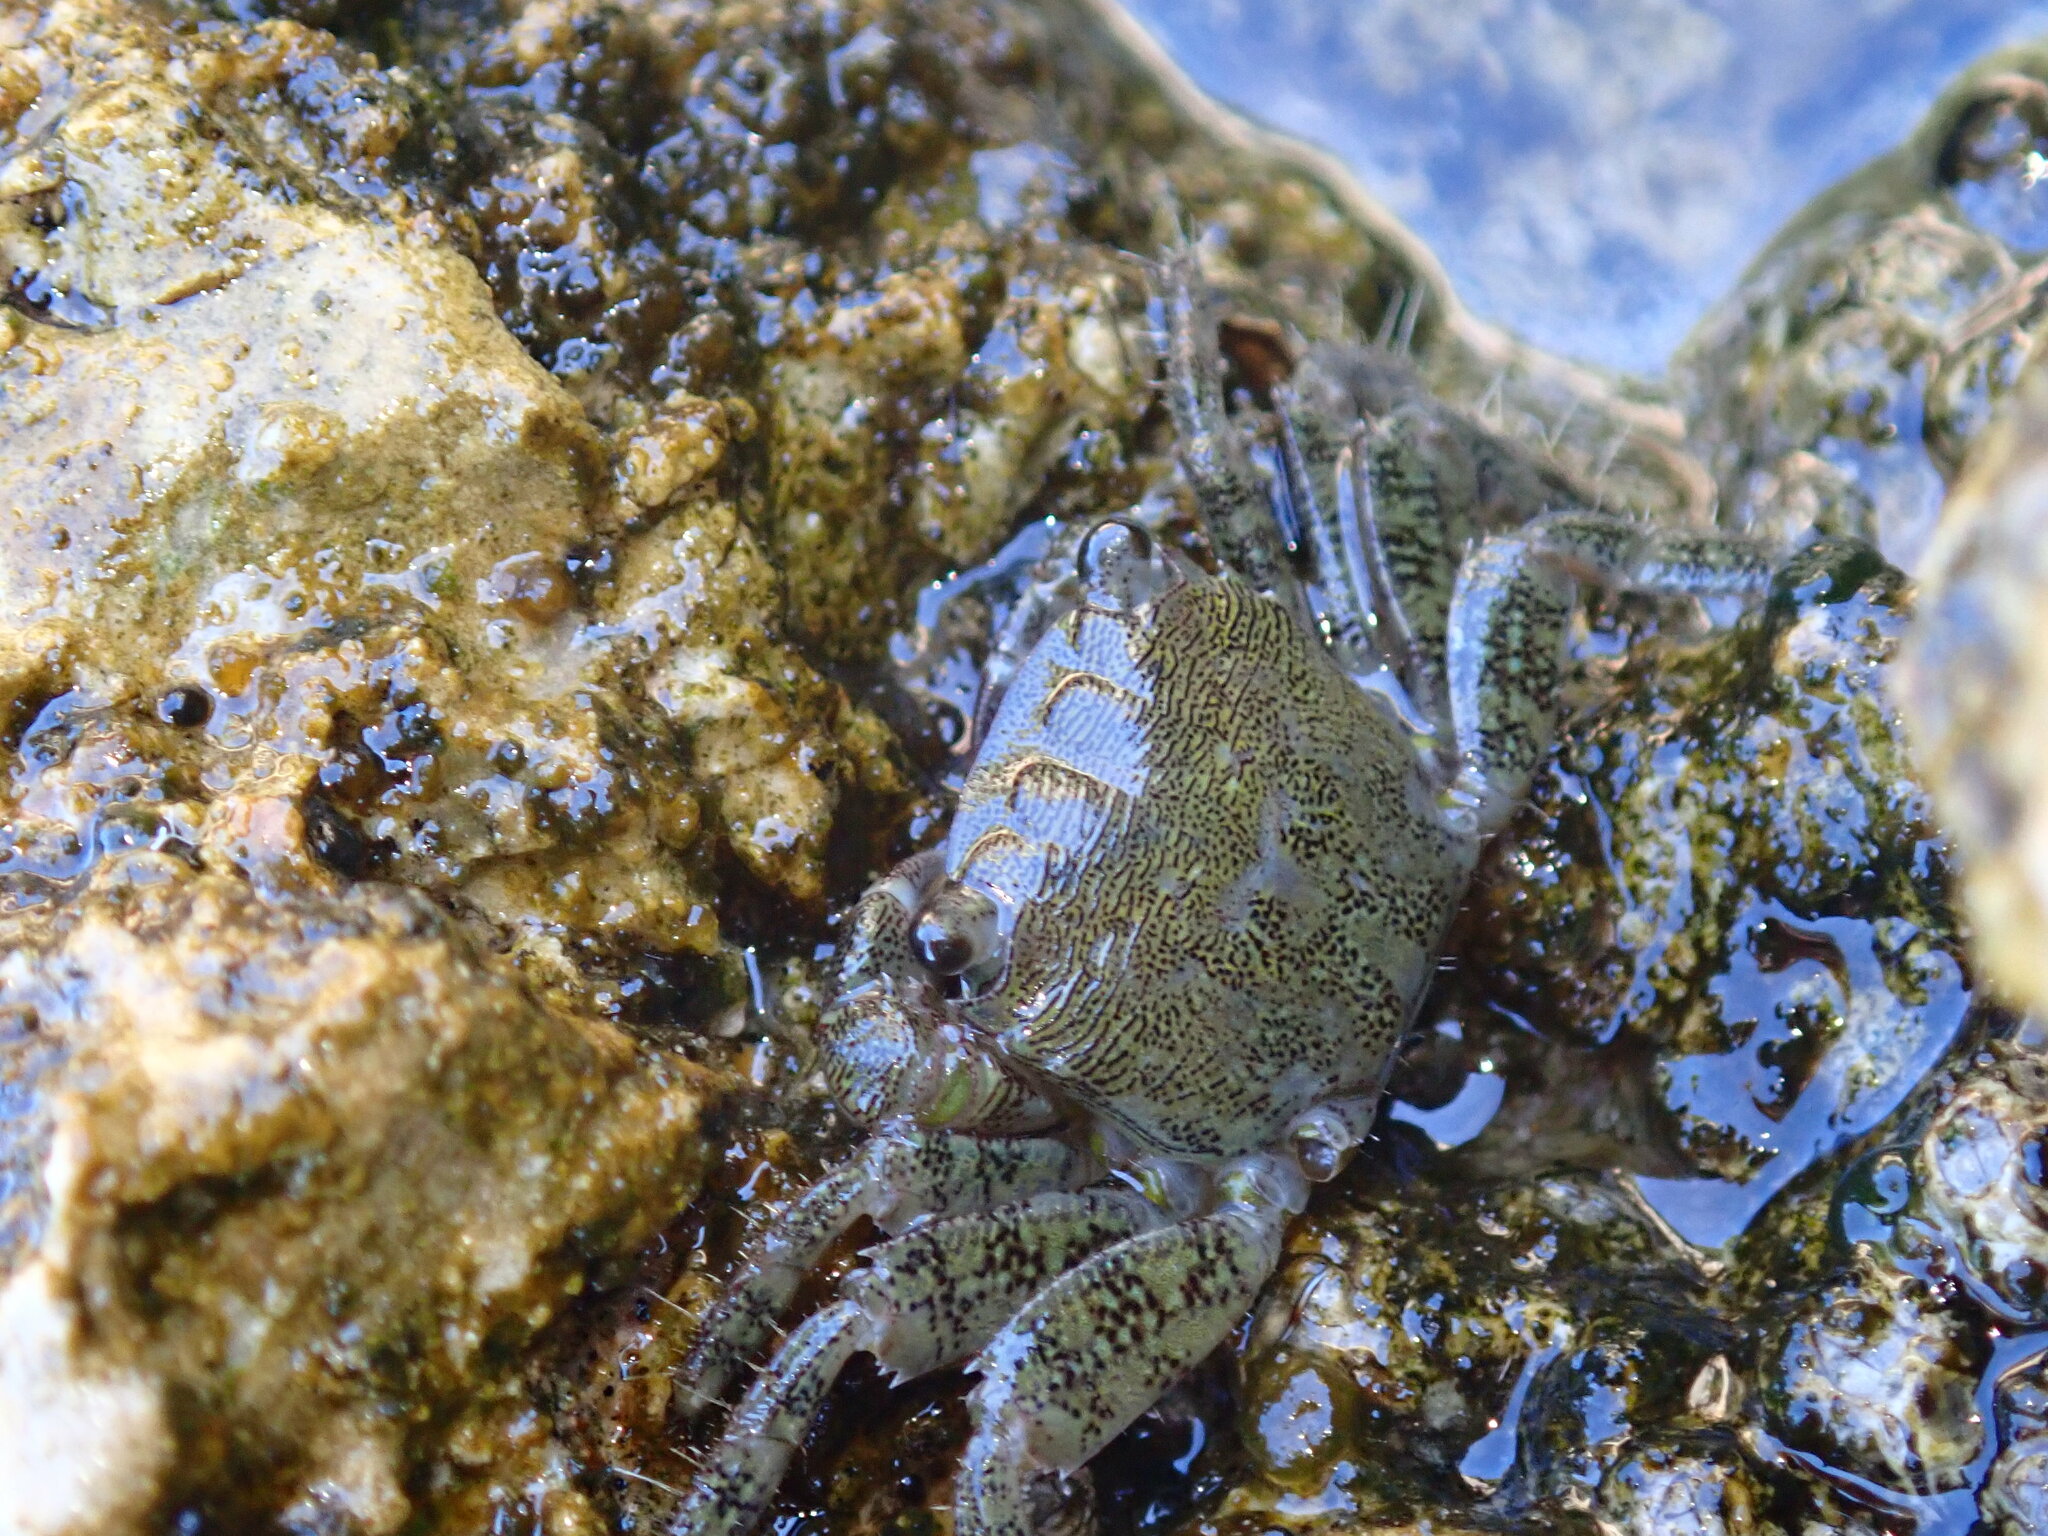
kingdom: Animalia
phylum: Arthropoda
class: Malacostraca
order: Decapoda
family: Grapsidae
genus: Pachygrapsus
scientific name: Pachygrapsus marmoratus
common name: Marbled rock crab
